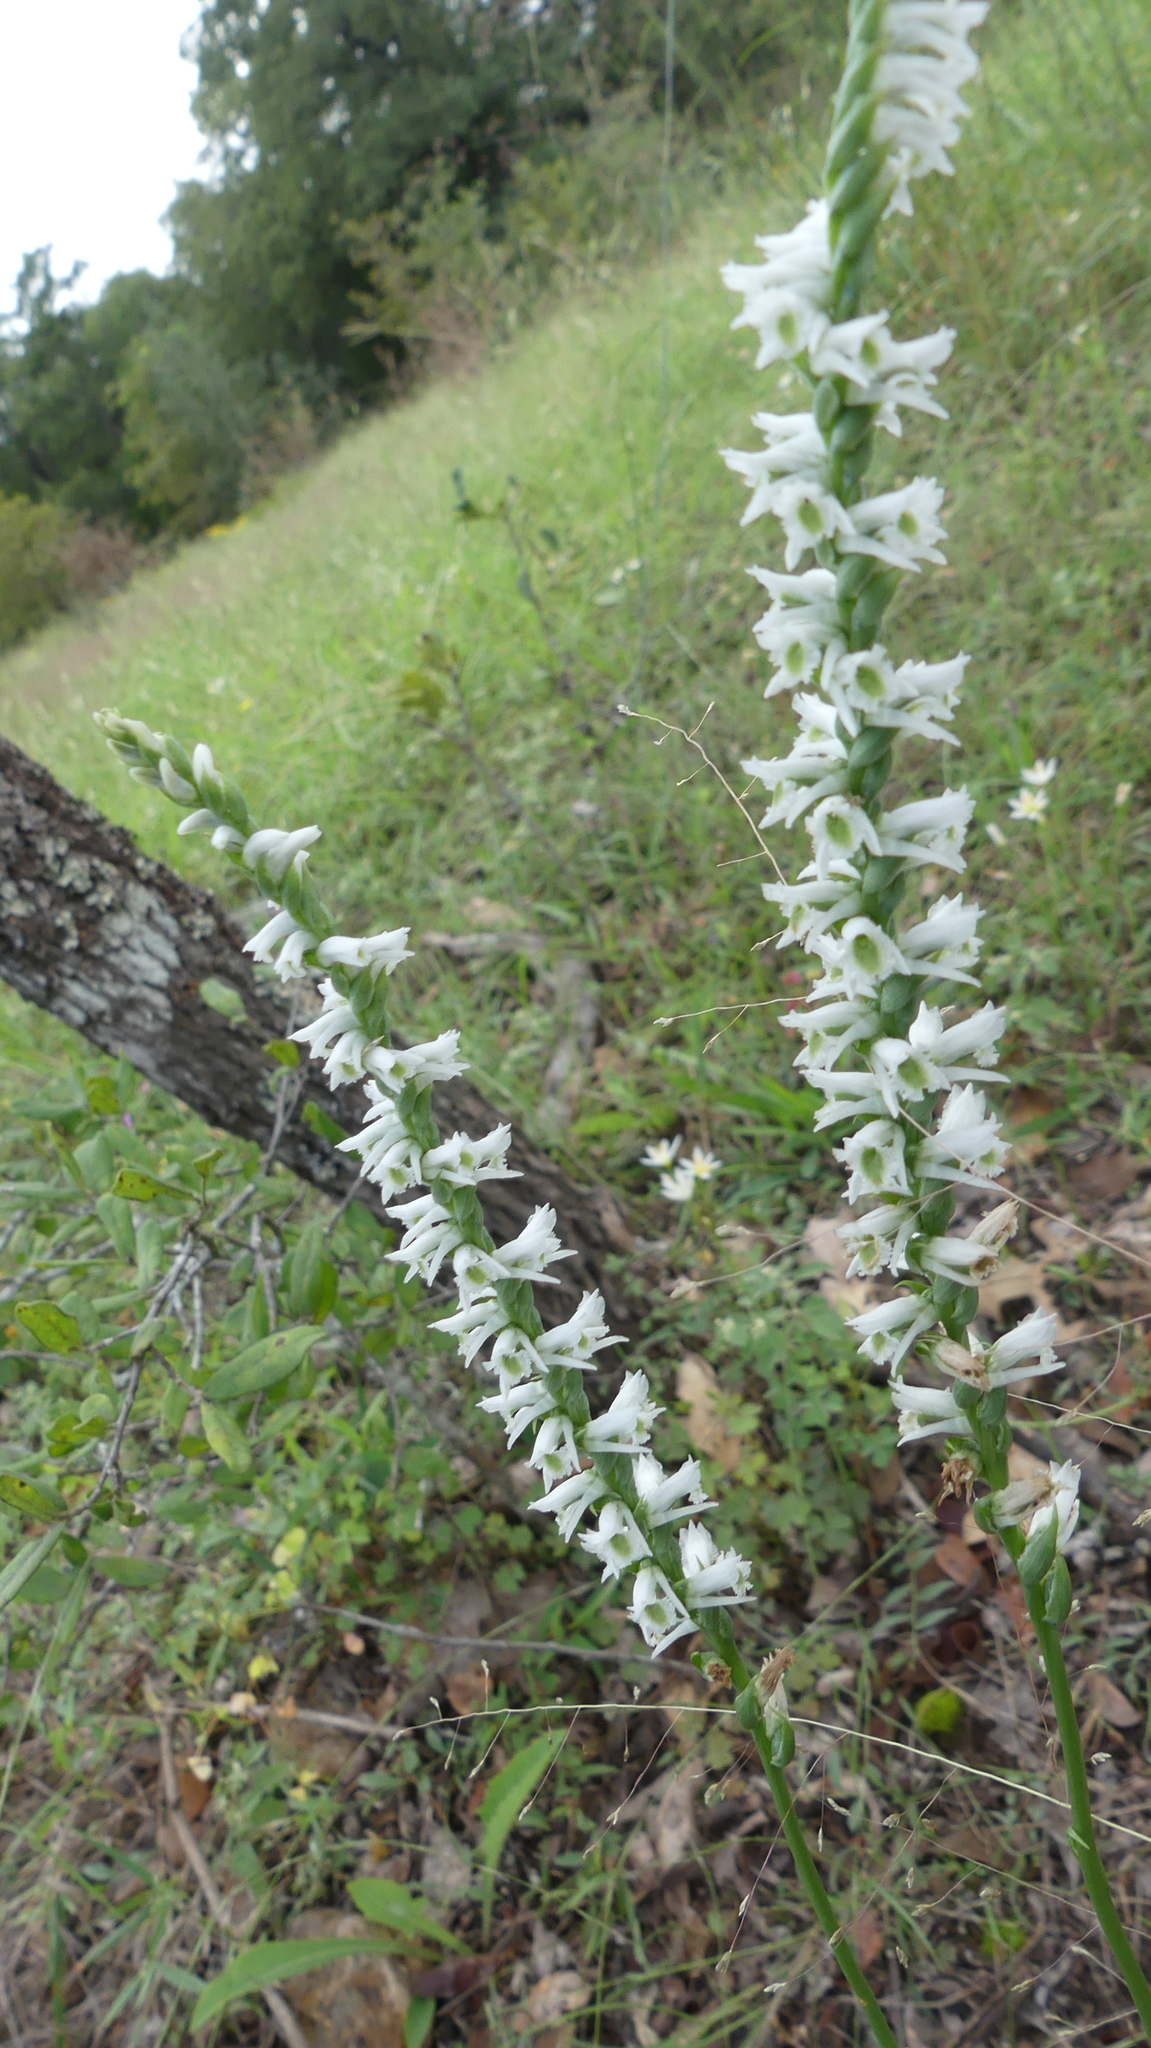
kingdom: Plantae
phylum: Tracheophyta
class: Liliopsida
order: Asparagales
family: Orchidaceae
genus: Spiranthes
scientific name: Spiranthes lacera
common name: Northern slender ladies'-tresses
